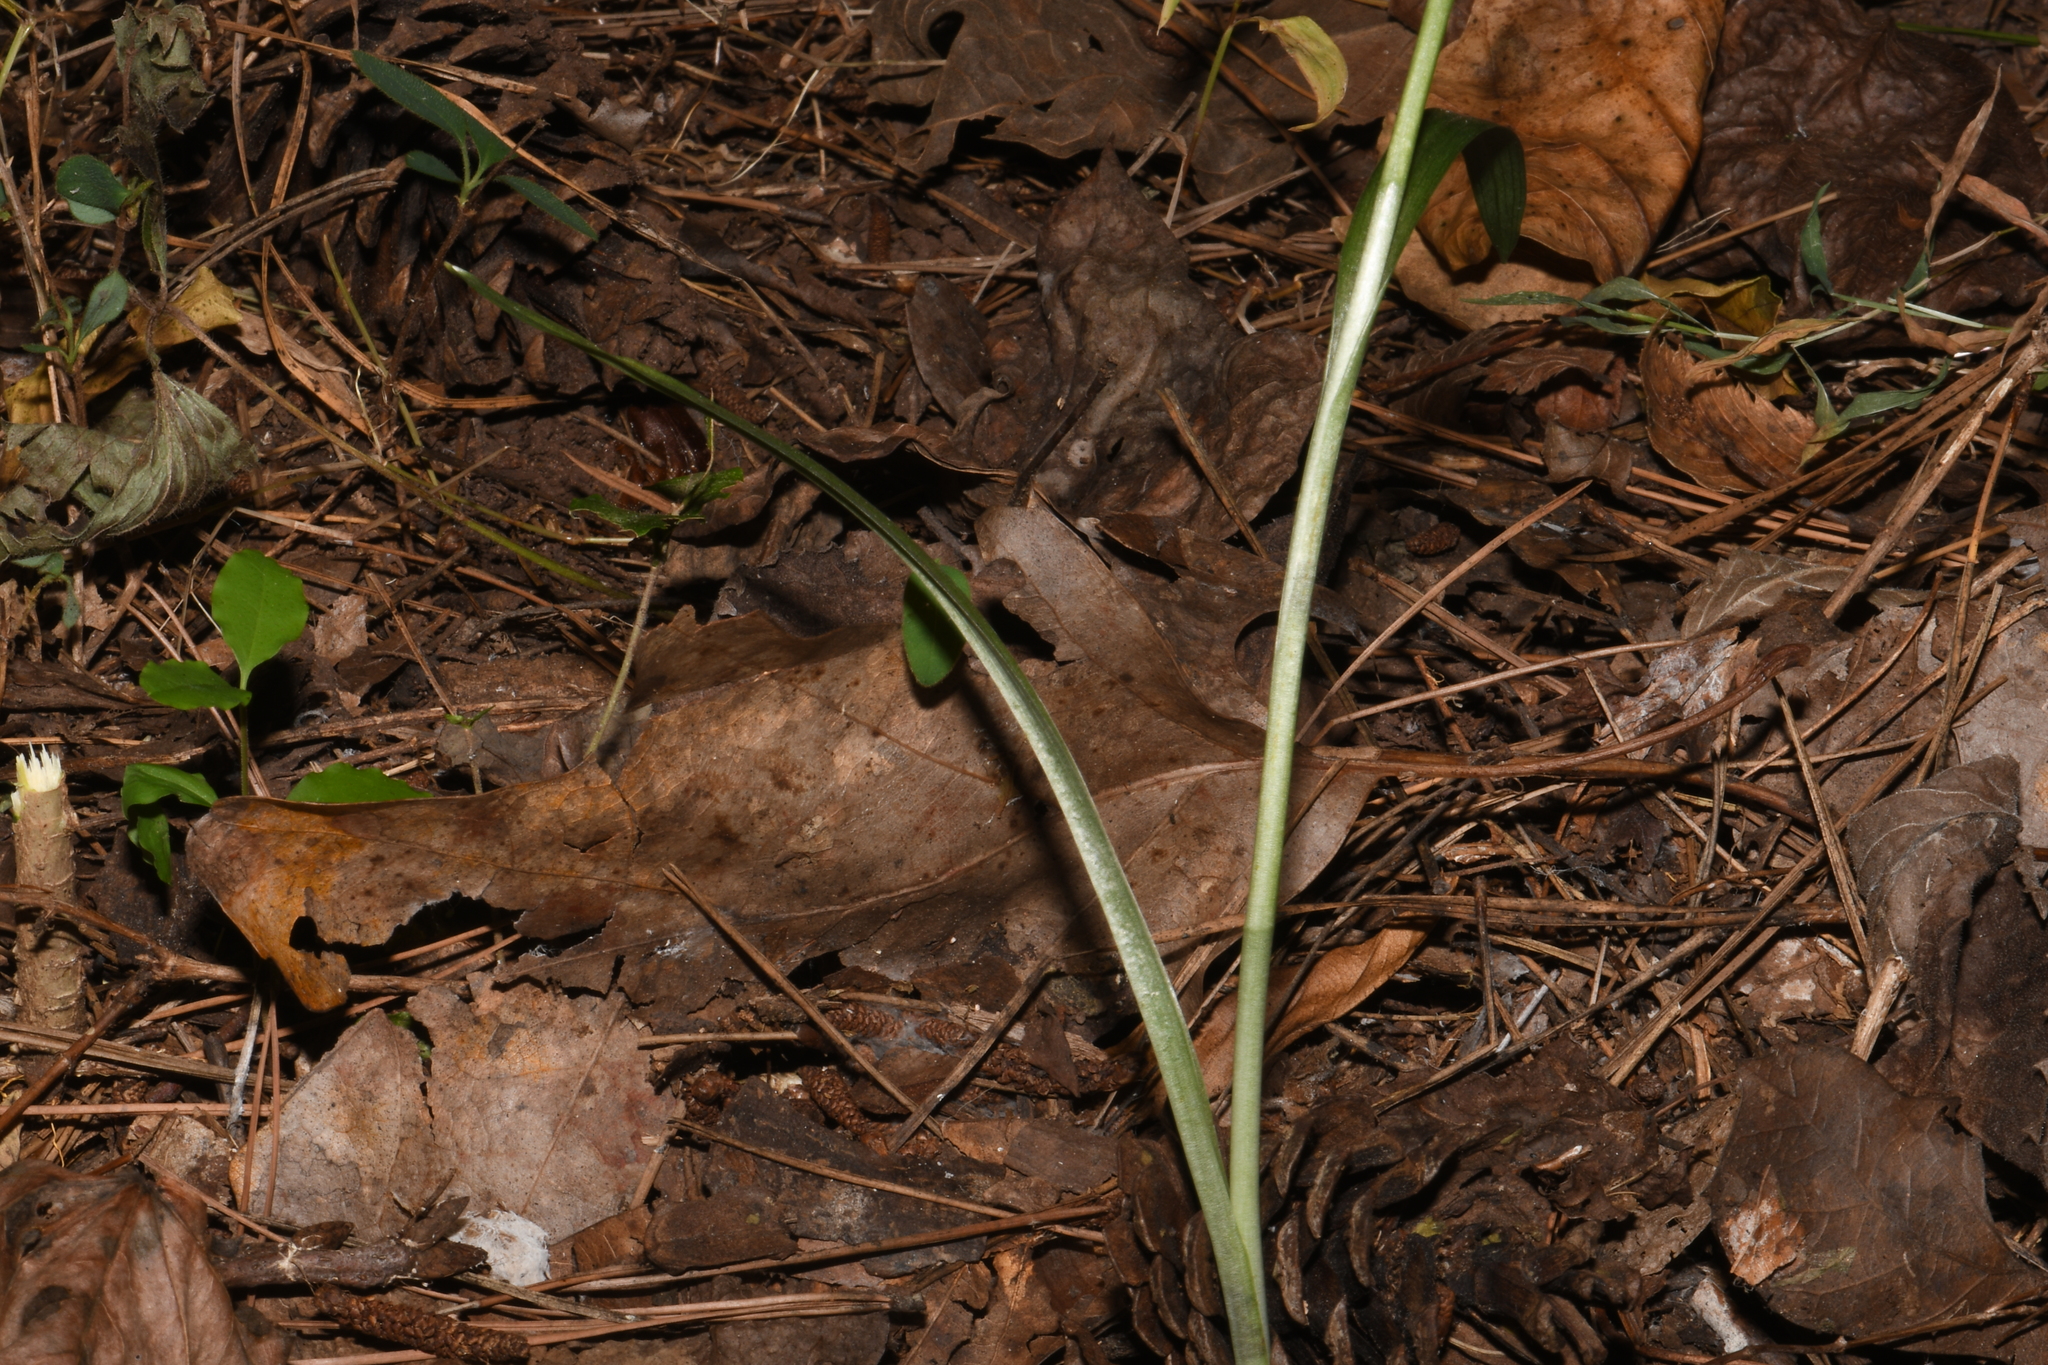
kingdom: Plantae
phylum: Tracheophyta
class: Liliopsida
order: Asparagales
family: Orchidaceae
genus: Spiranthes
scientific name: Spiranthes ovalis
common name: October ladies'-tresses
